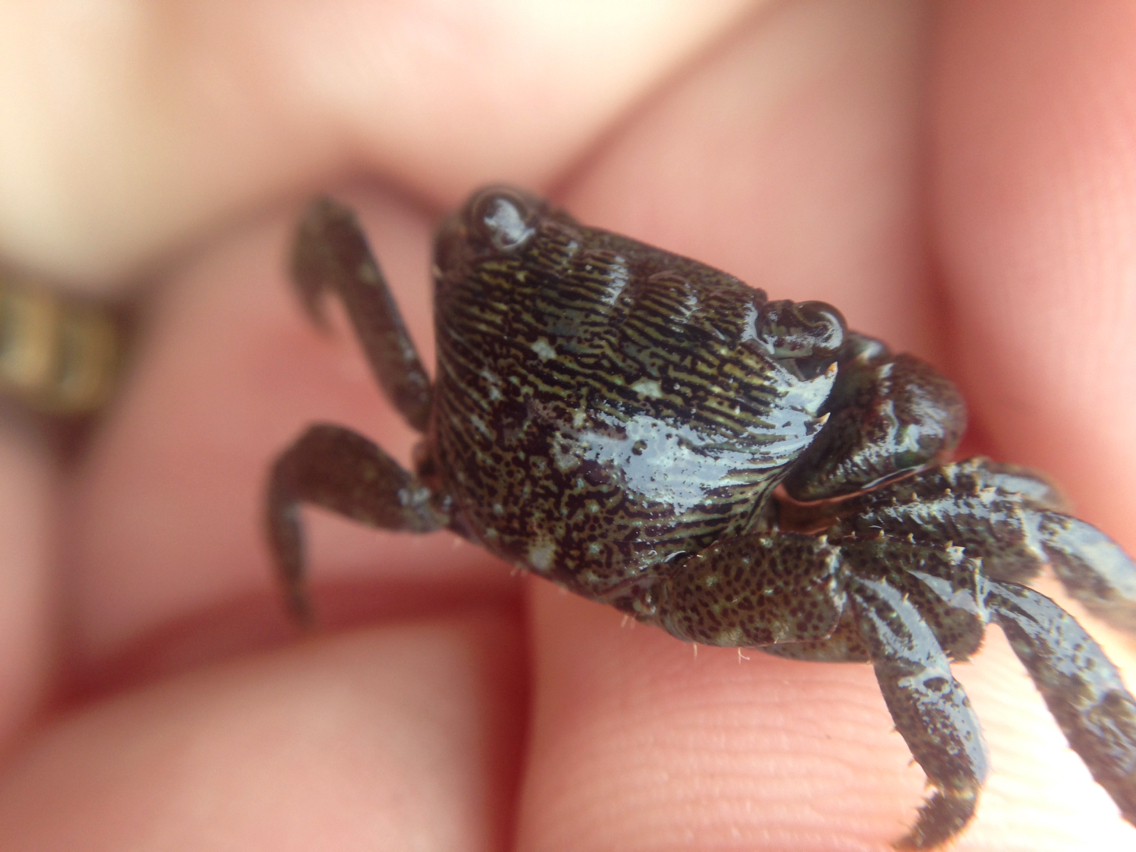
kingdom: Animalia
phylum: Arthropoda
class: Malacostraca
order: Decapoda
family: Grapsidae
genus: Pachygrapsus
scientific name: Pachygrapsus crassipes
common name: Striped shore crab
